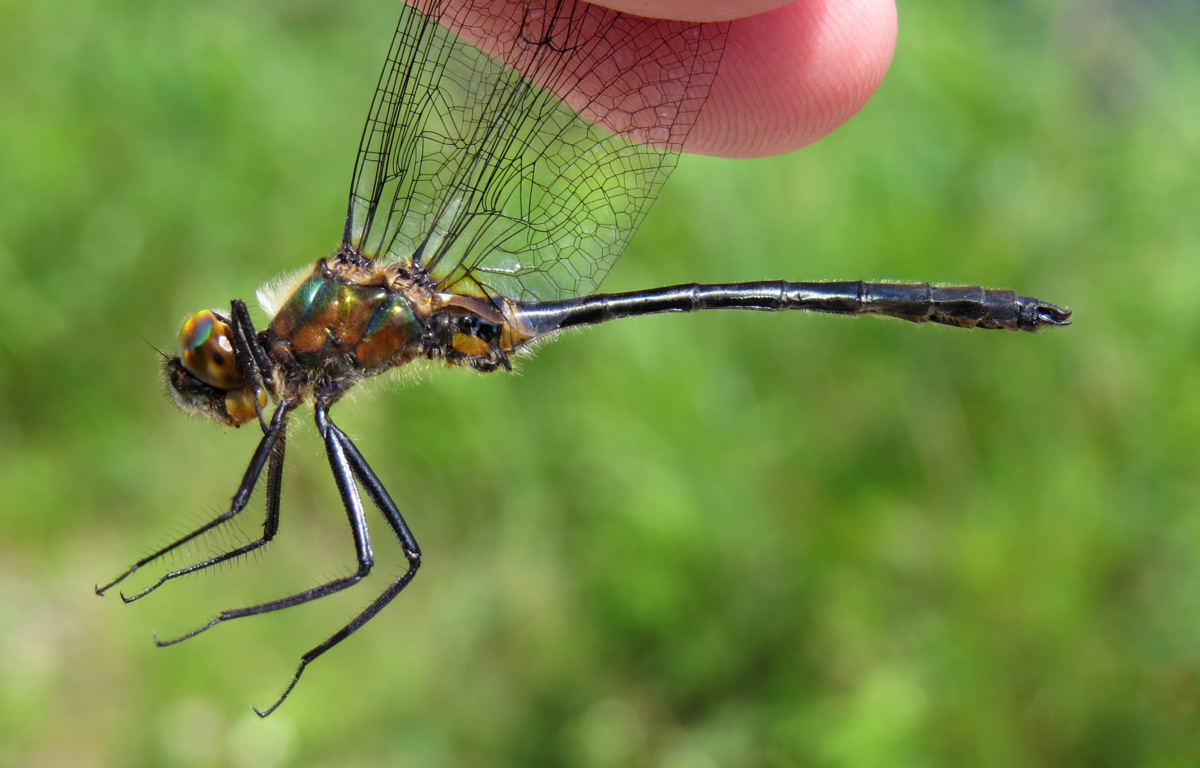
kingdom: Animalia
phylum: Arthropoda
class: Insecta
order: Odonata
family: Corduliidae
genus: Dorocordulia
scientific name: Dorocordulia libera
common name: Racket-tailed emerald
